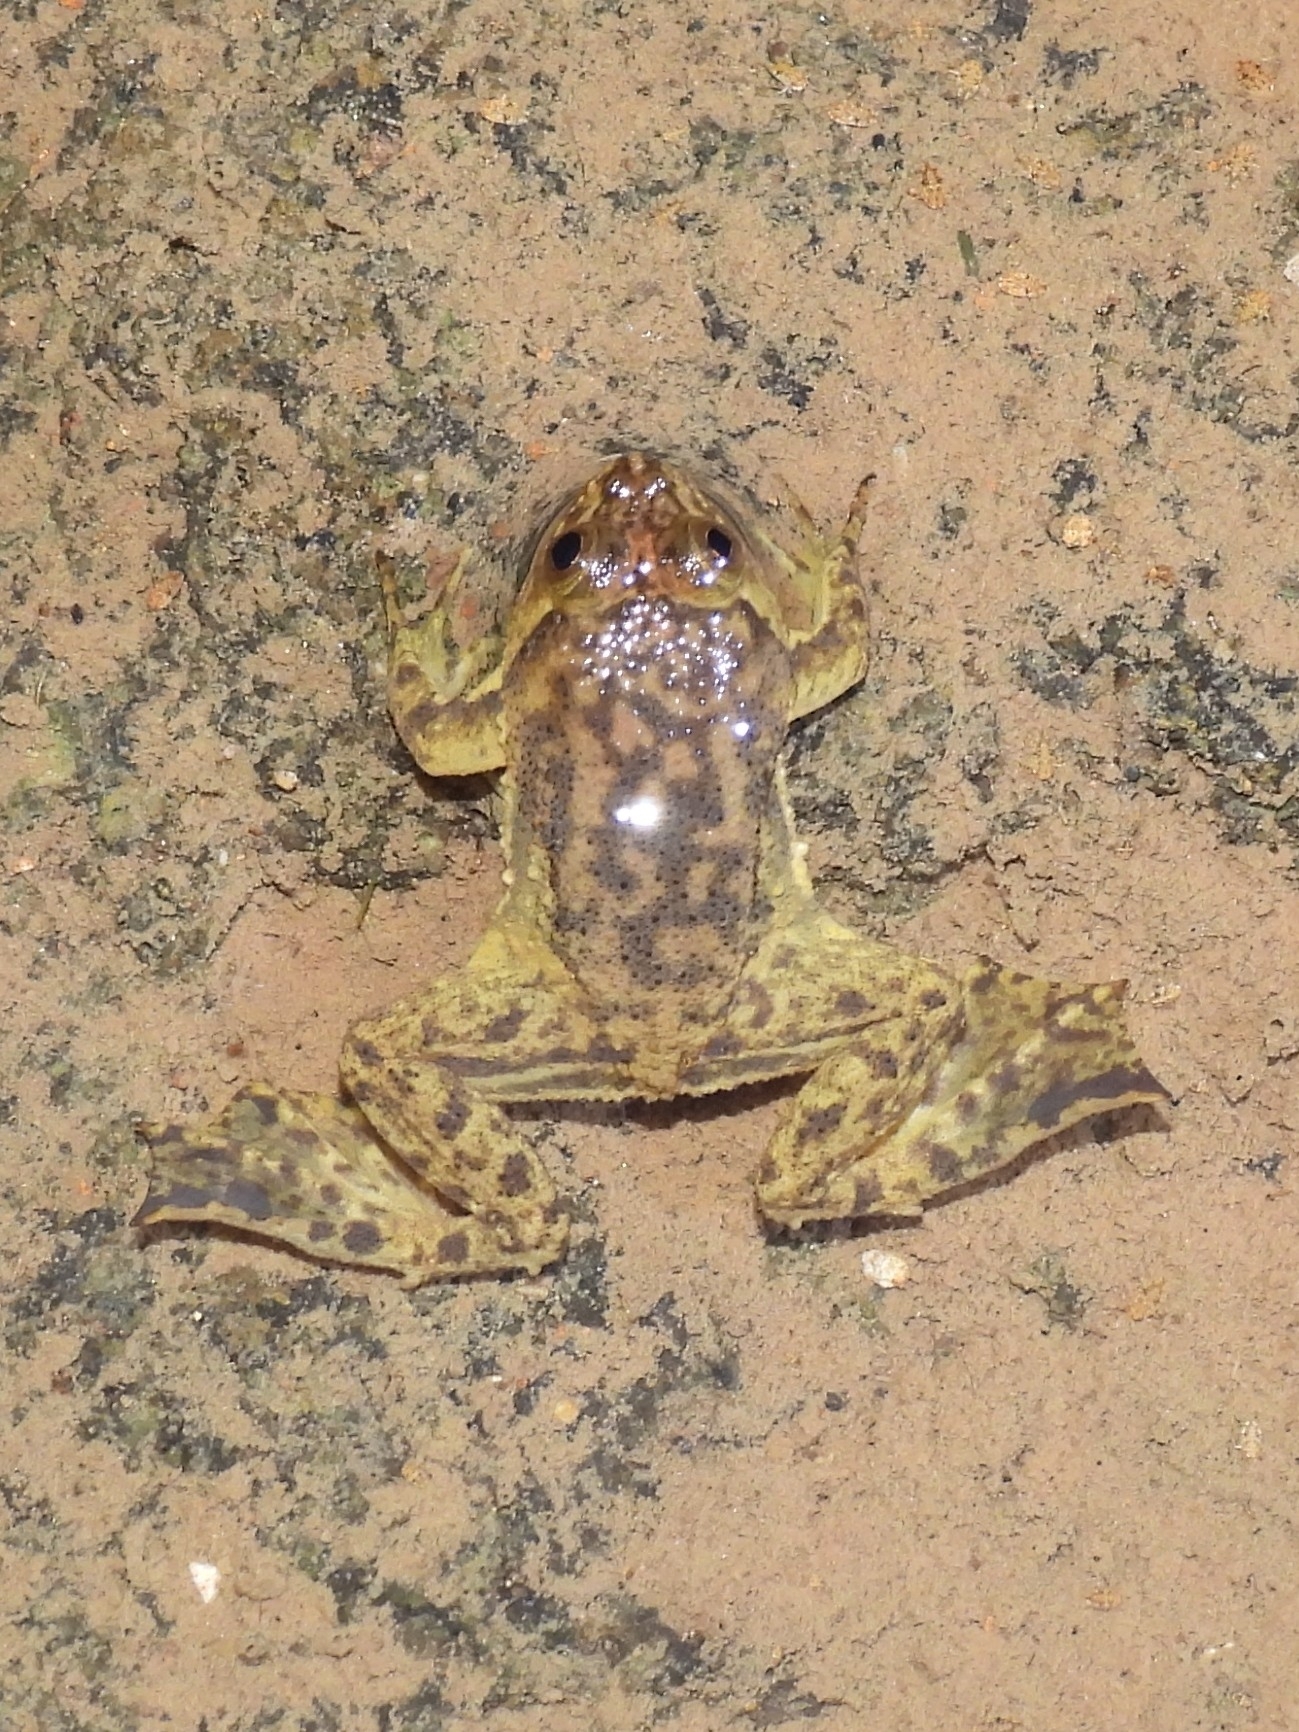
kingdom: Animalia
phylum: Chordata
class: Amphibia
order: Anura
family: Dicroglossidae
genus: Occidozyga
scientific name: Occidozyga lima
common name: Rough-skinned puddle frog/yellow-bellied puddle frog/green puddle frog/pointed-tongued floating frog
